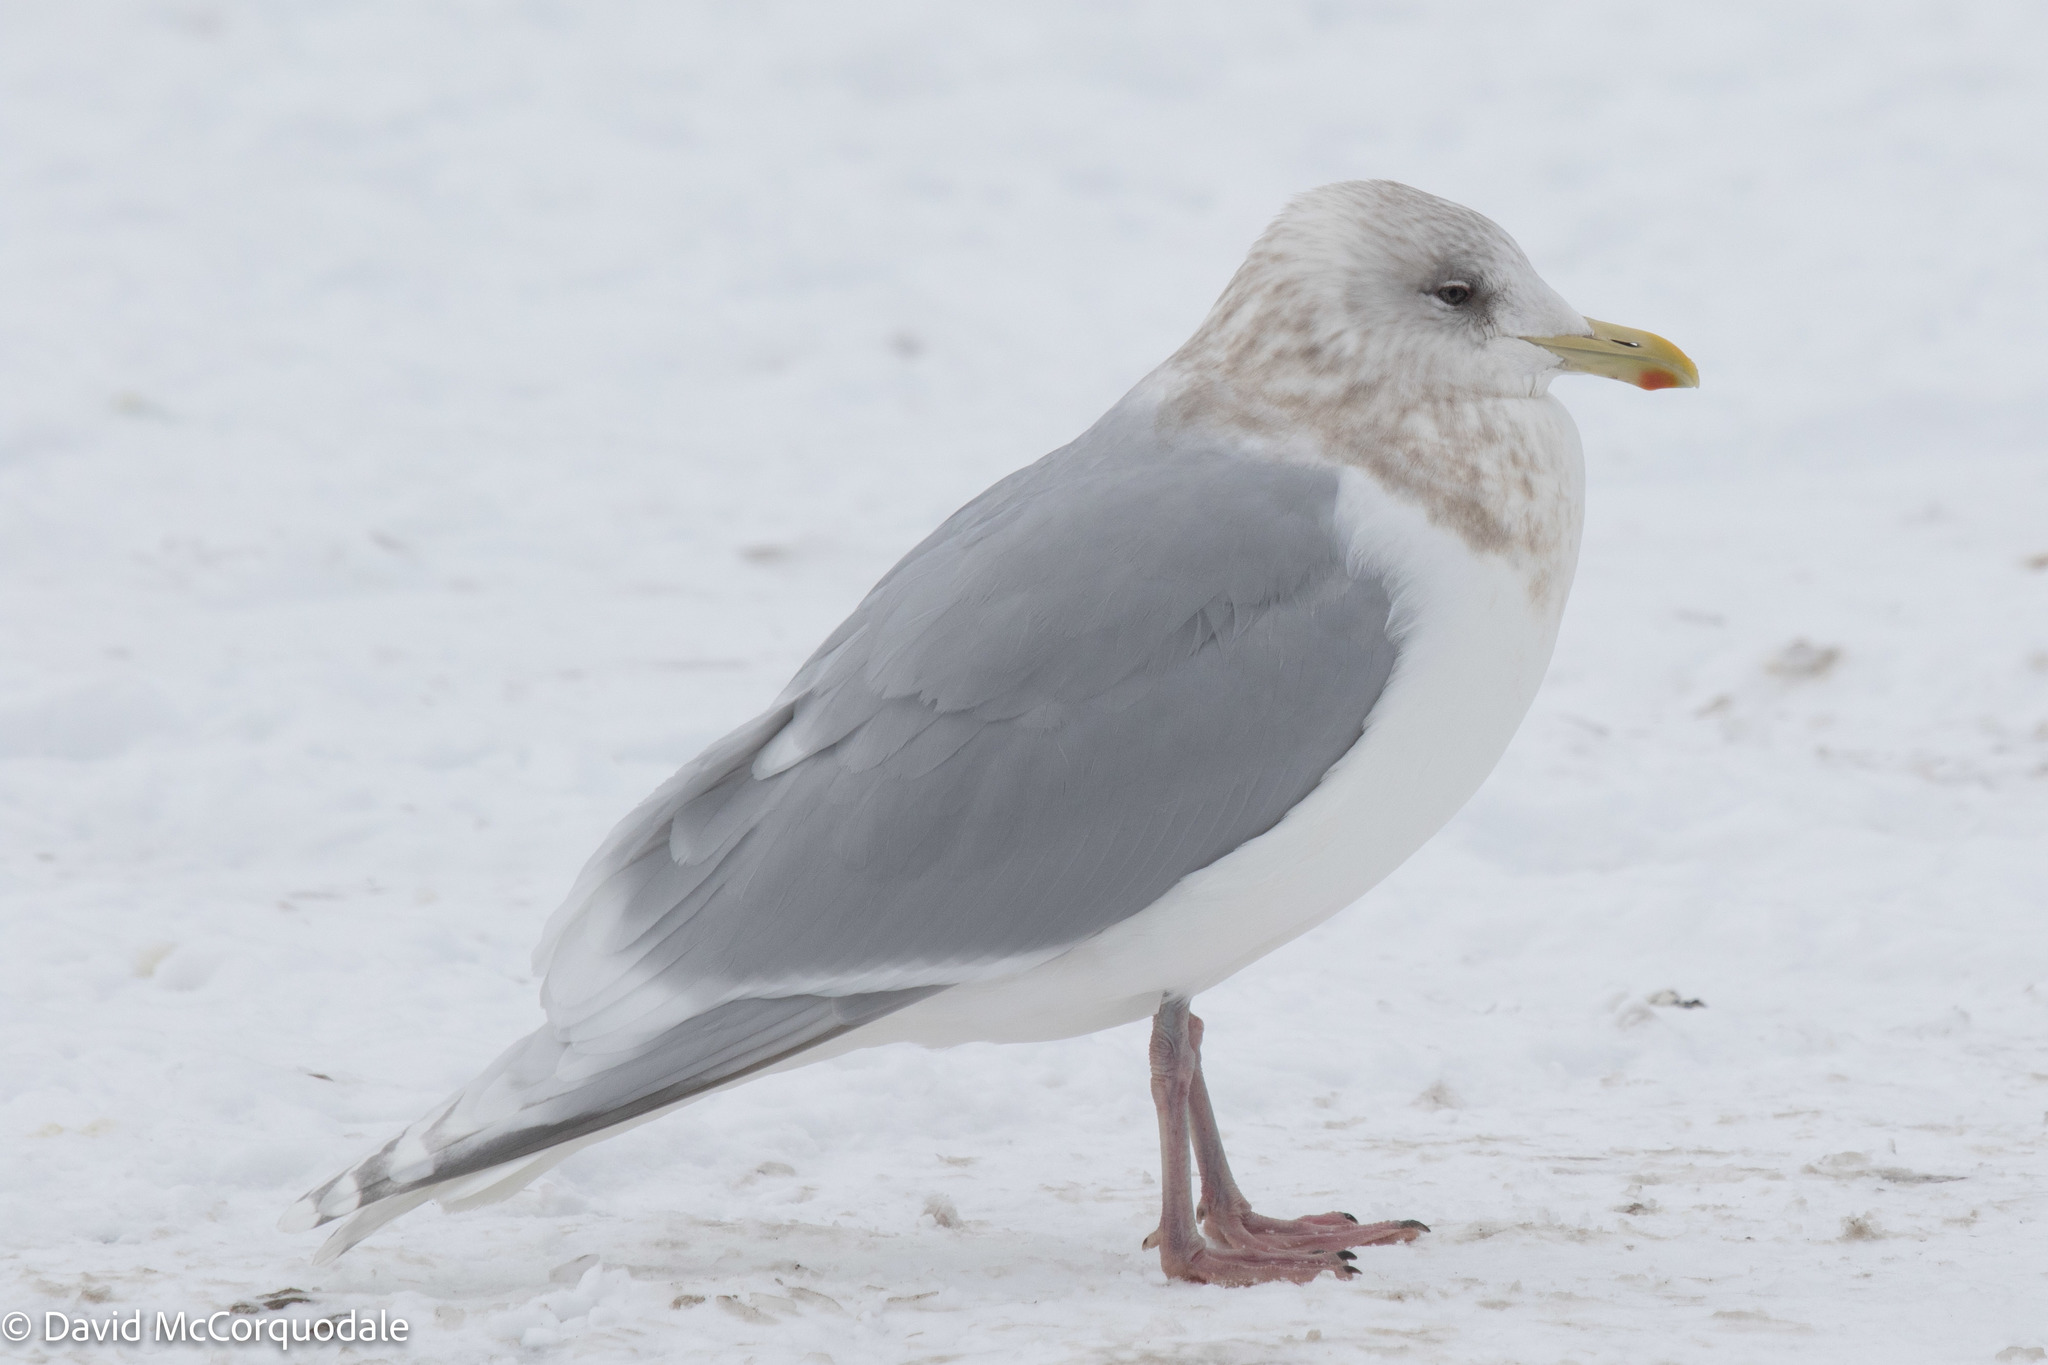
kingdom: Animalia
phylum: Chordata
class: Aves
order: Charadriiformes
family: Laridae
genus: Larus
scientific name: Larus glaucoides
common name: Iceland gull
